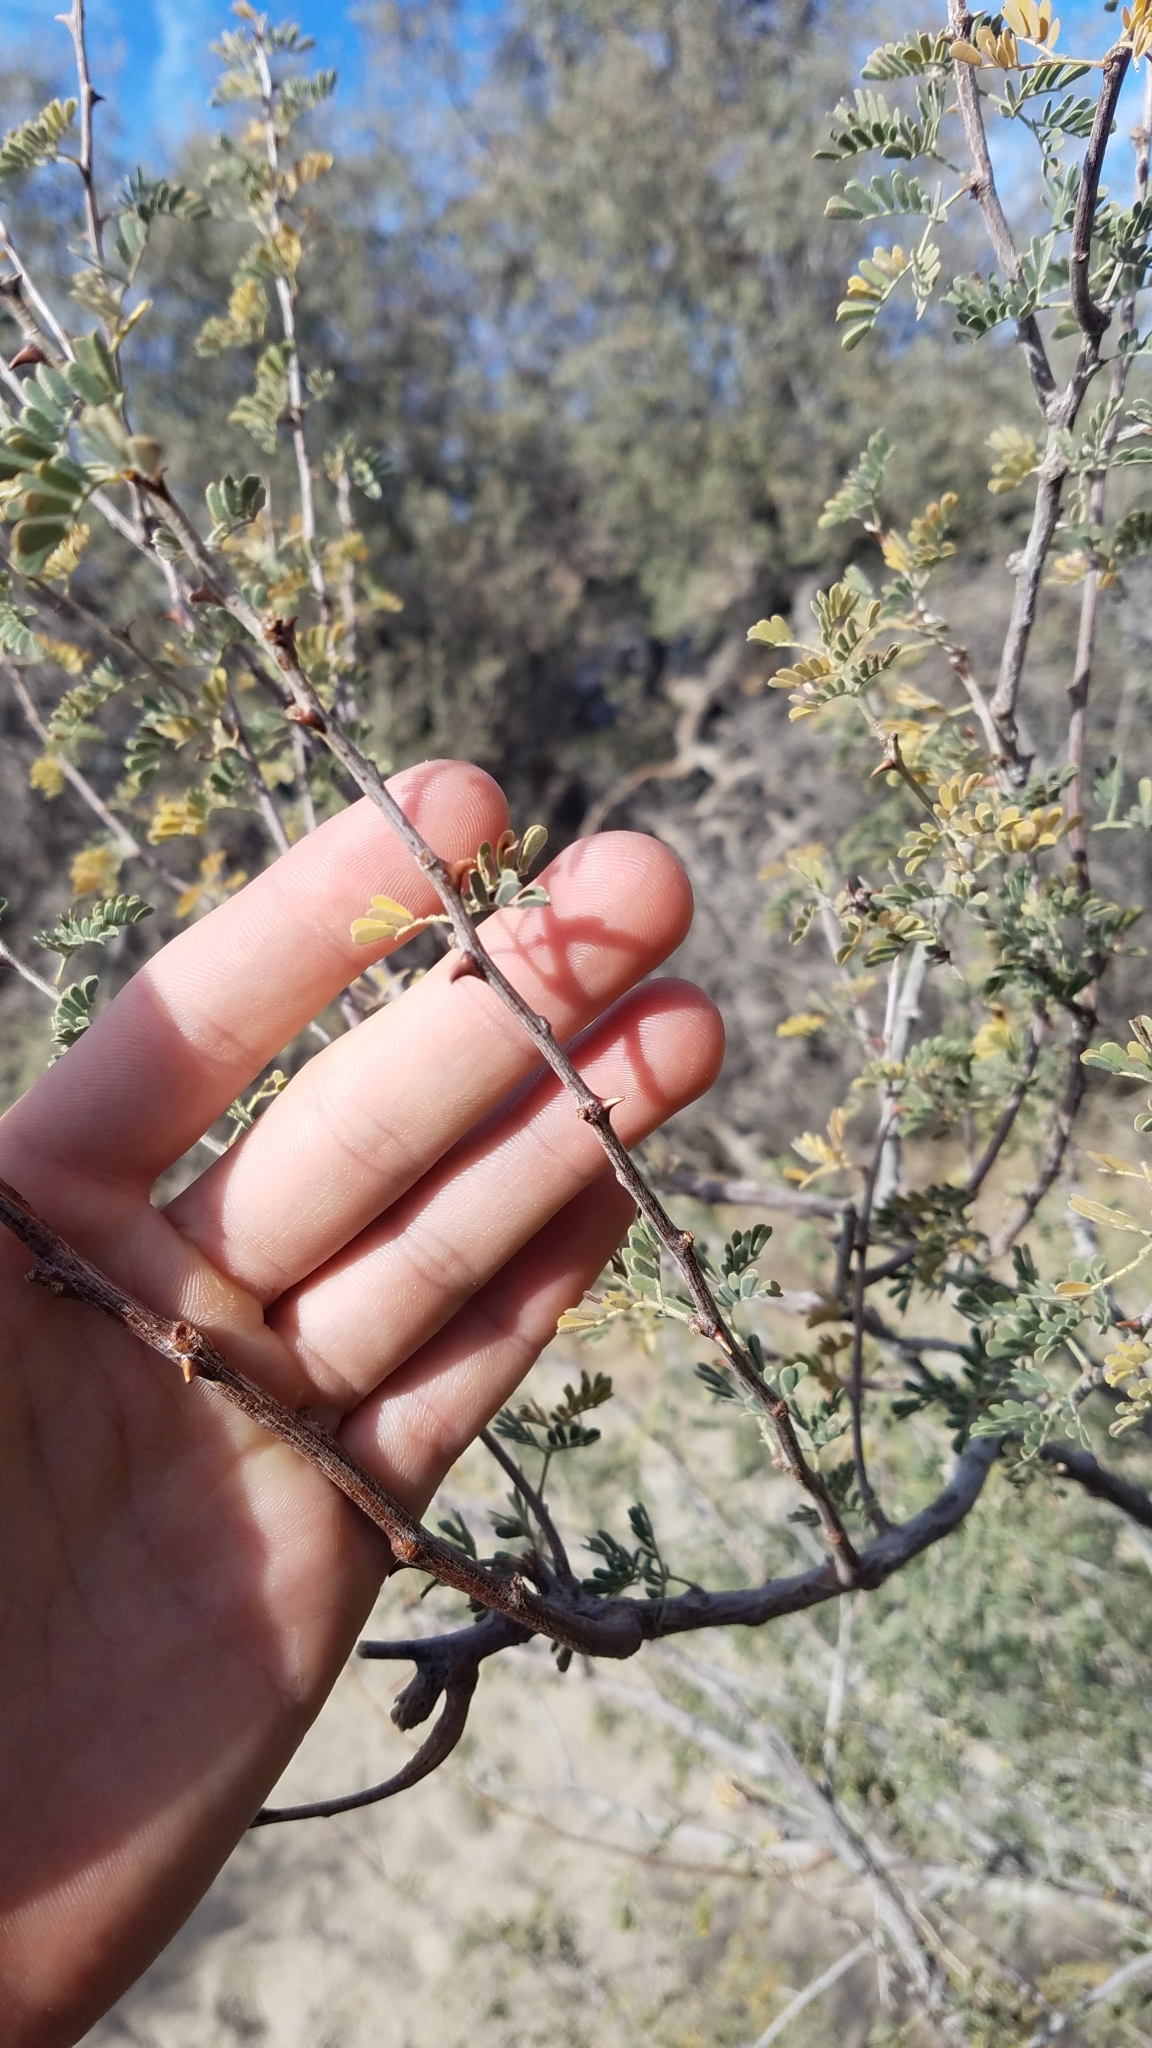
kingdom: Plantae
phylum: Tracheophyta
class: Magnoliopsida
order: Fabales
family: Fabaceae
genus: Senegalia
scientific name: Senegalia greggii
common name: Texas-mimosa
